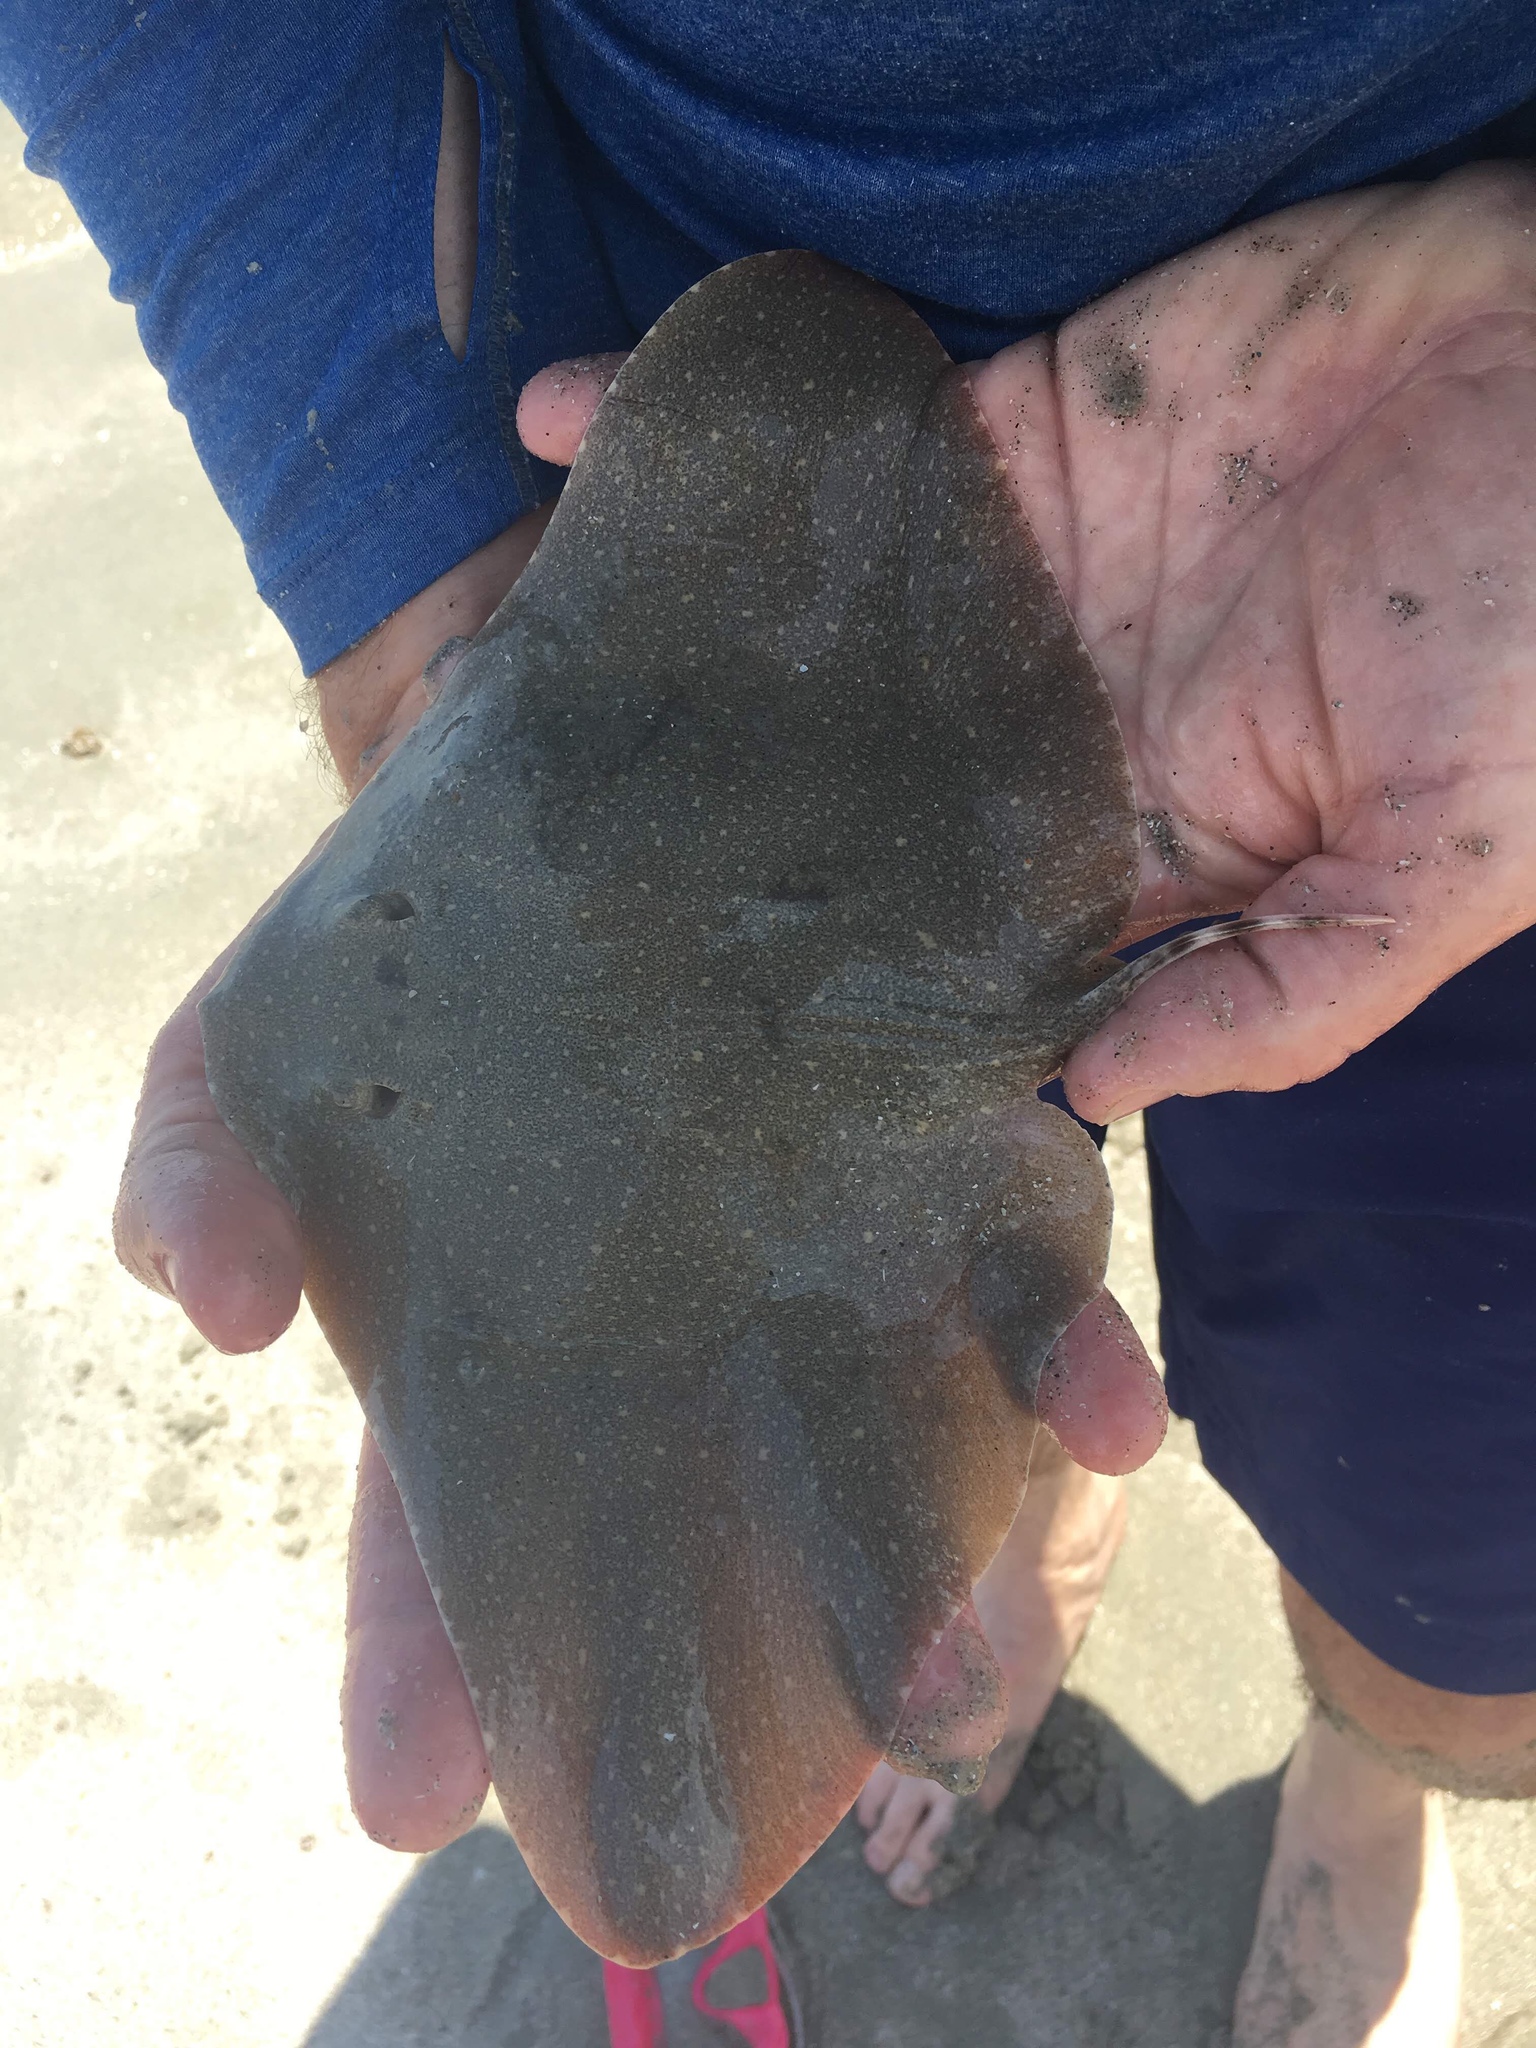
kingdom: Animalia
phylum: Chordata
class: Elasmobranchii
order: Myliobatiformes
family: Gymnuridae
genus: Gymnura
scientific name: Gymnura lessae
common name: Lessa's butterfly ray
